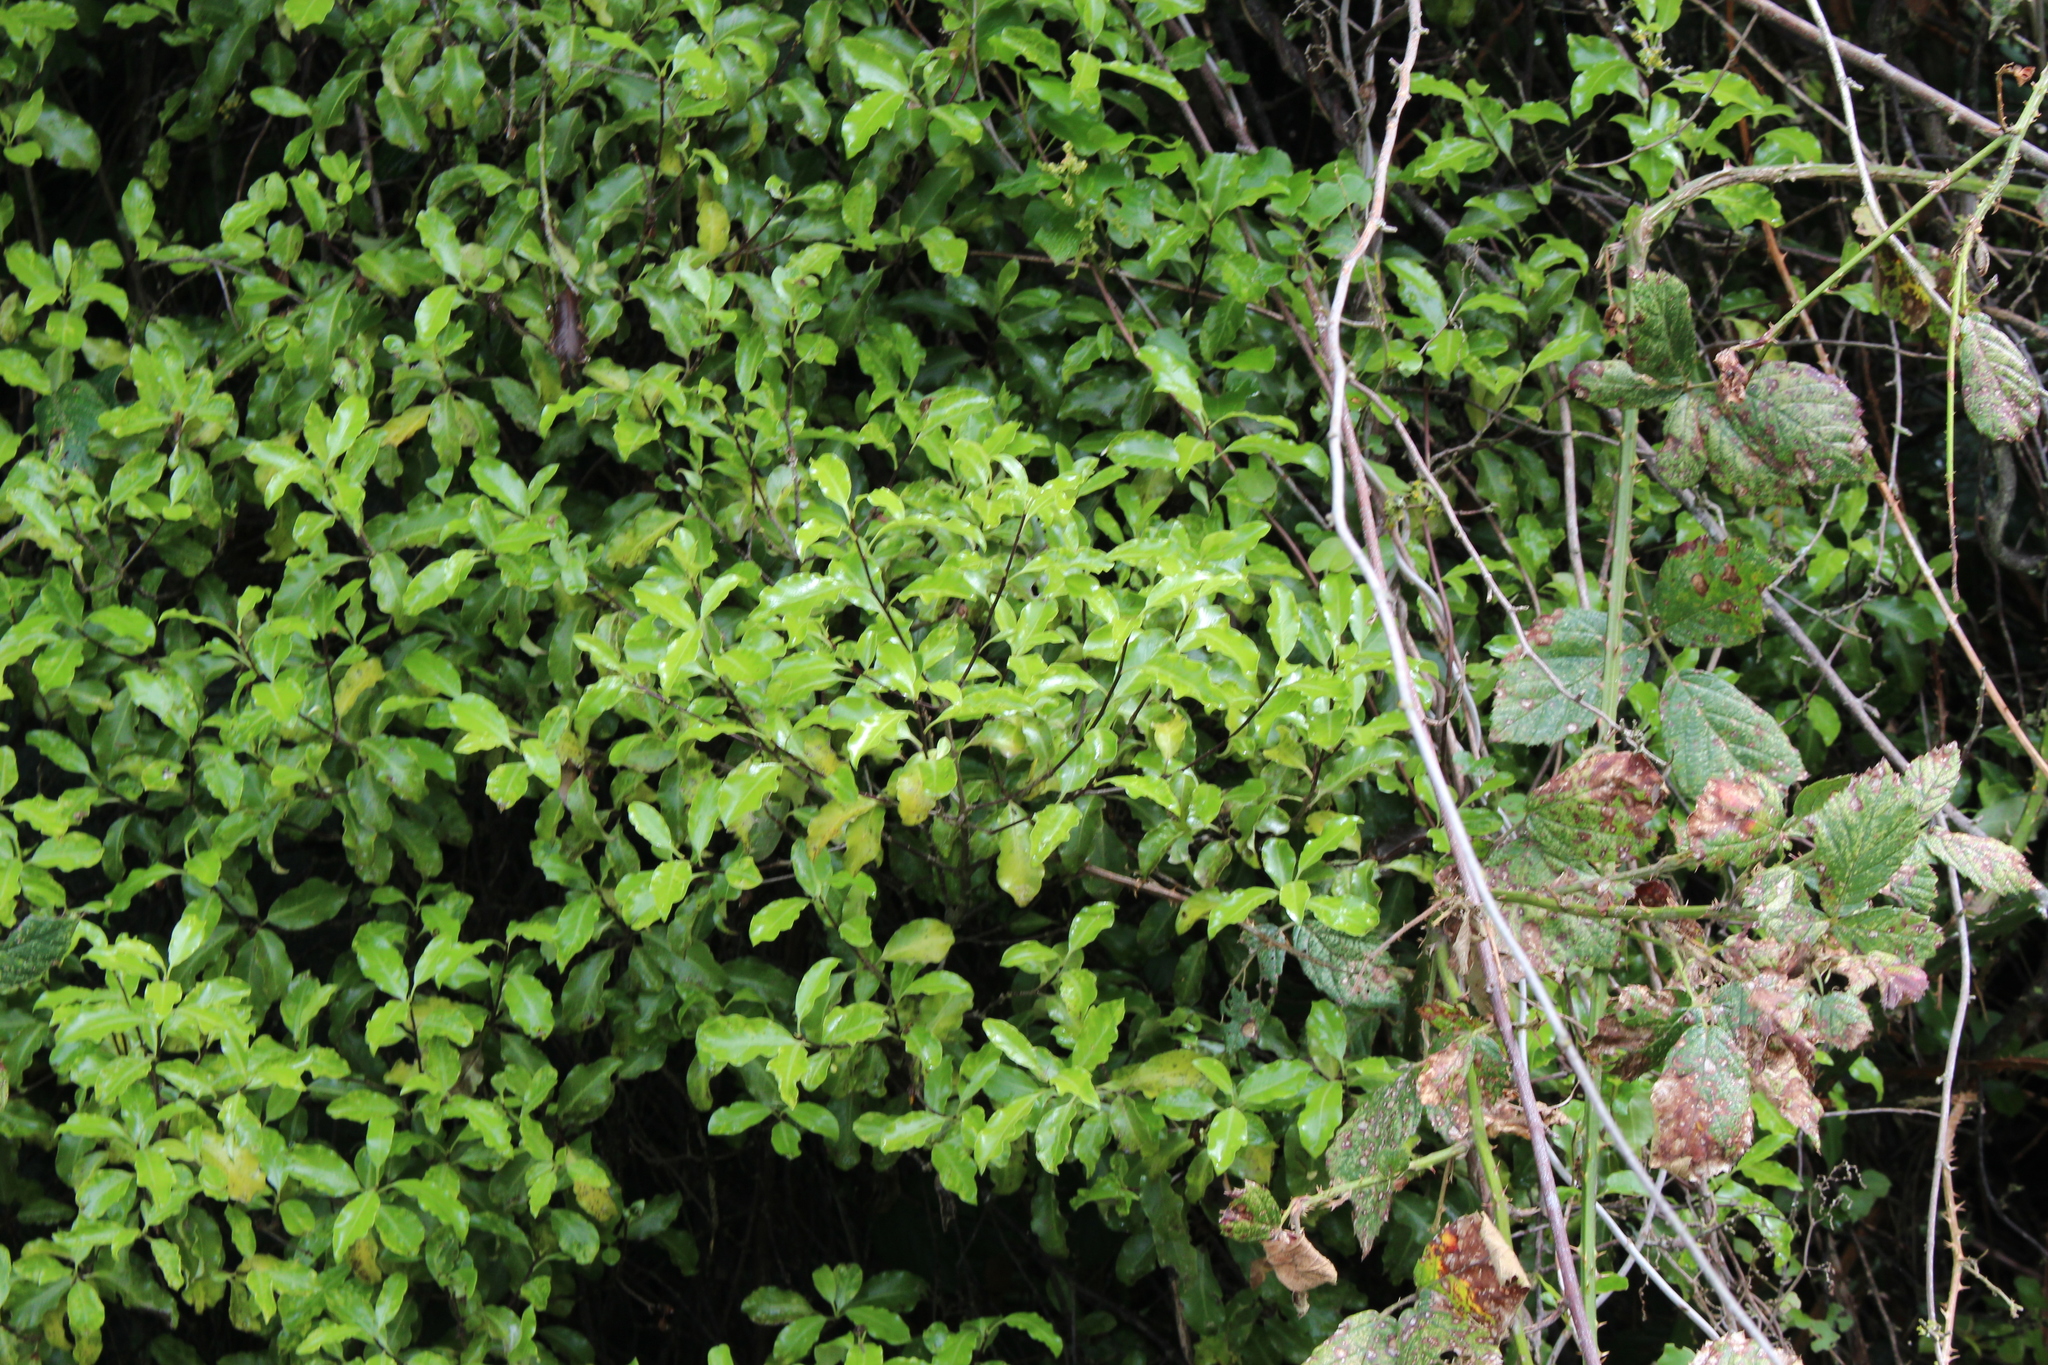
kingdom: Plantae
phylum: Tracheophyta
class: Magnoliopsida
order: Apiales
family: Pittosporaceae
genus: Pittosporum
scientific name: Pittosporum tenuifolium
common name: Kohuhu
